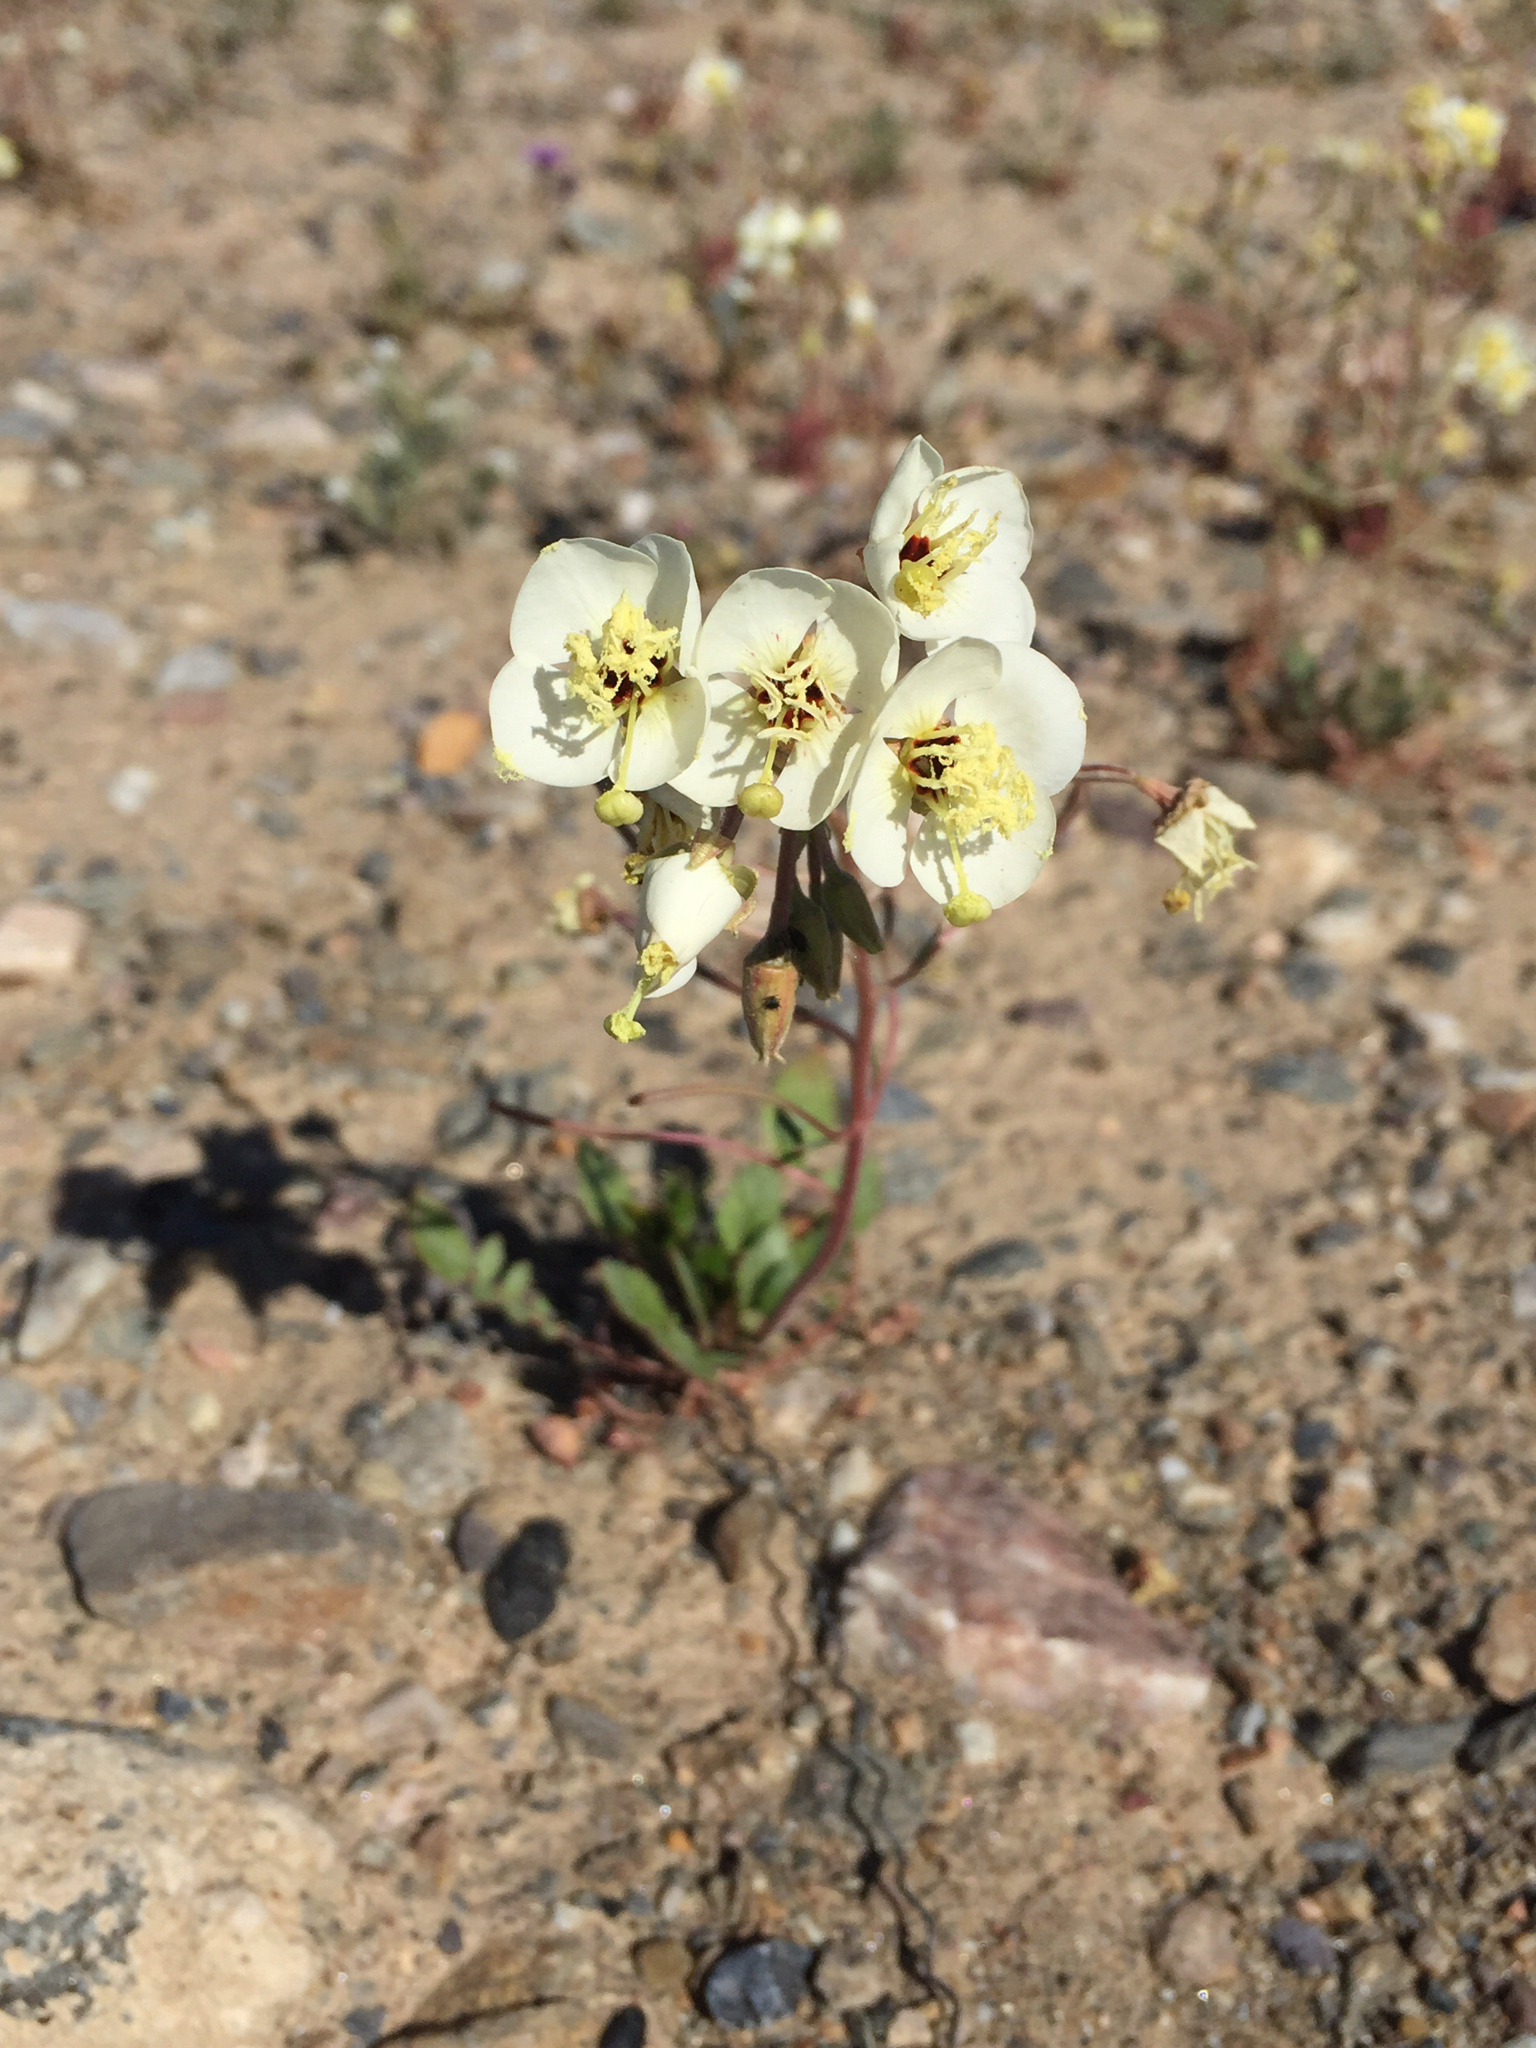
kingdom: Plantae
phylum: Tracheophyta
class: Magnoliopsida
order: Myrtales
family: Onagraceae
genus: Chylismia
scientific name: Chylismia claviformis
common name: Browneyes
